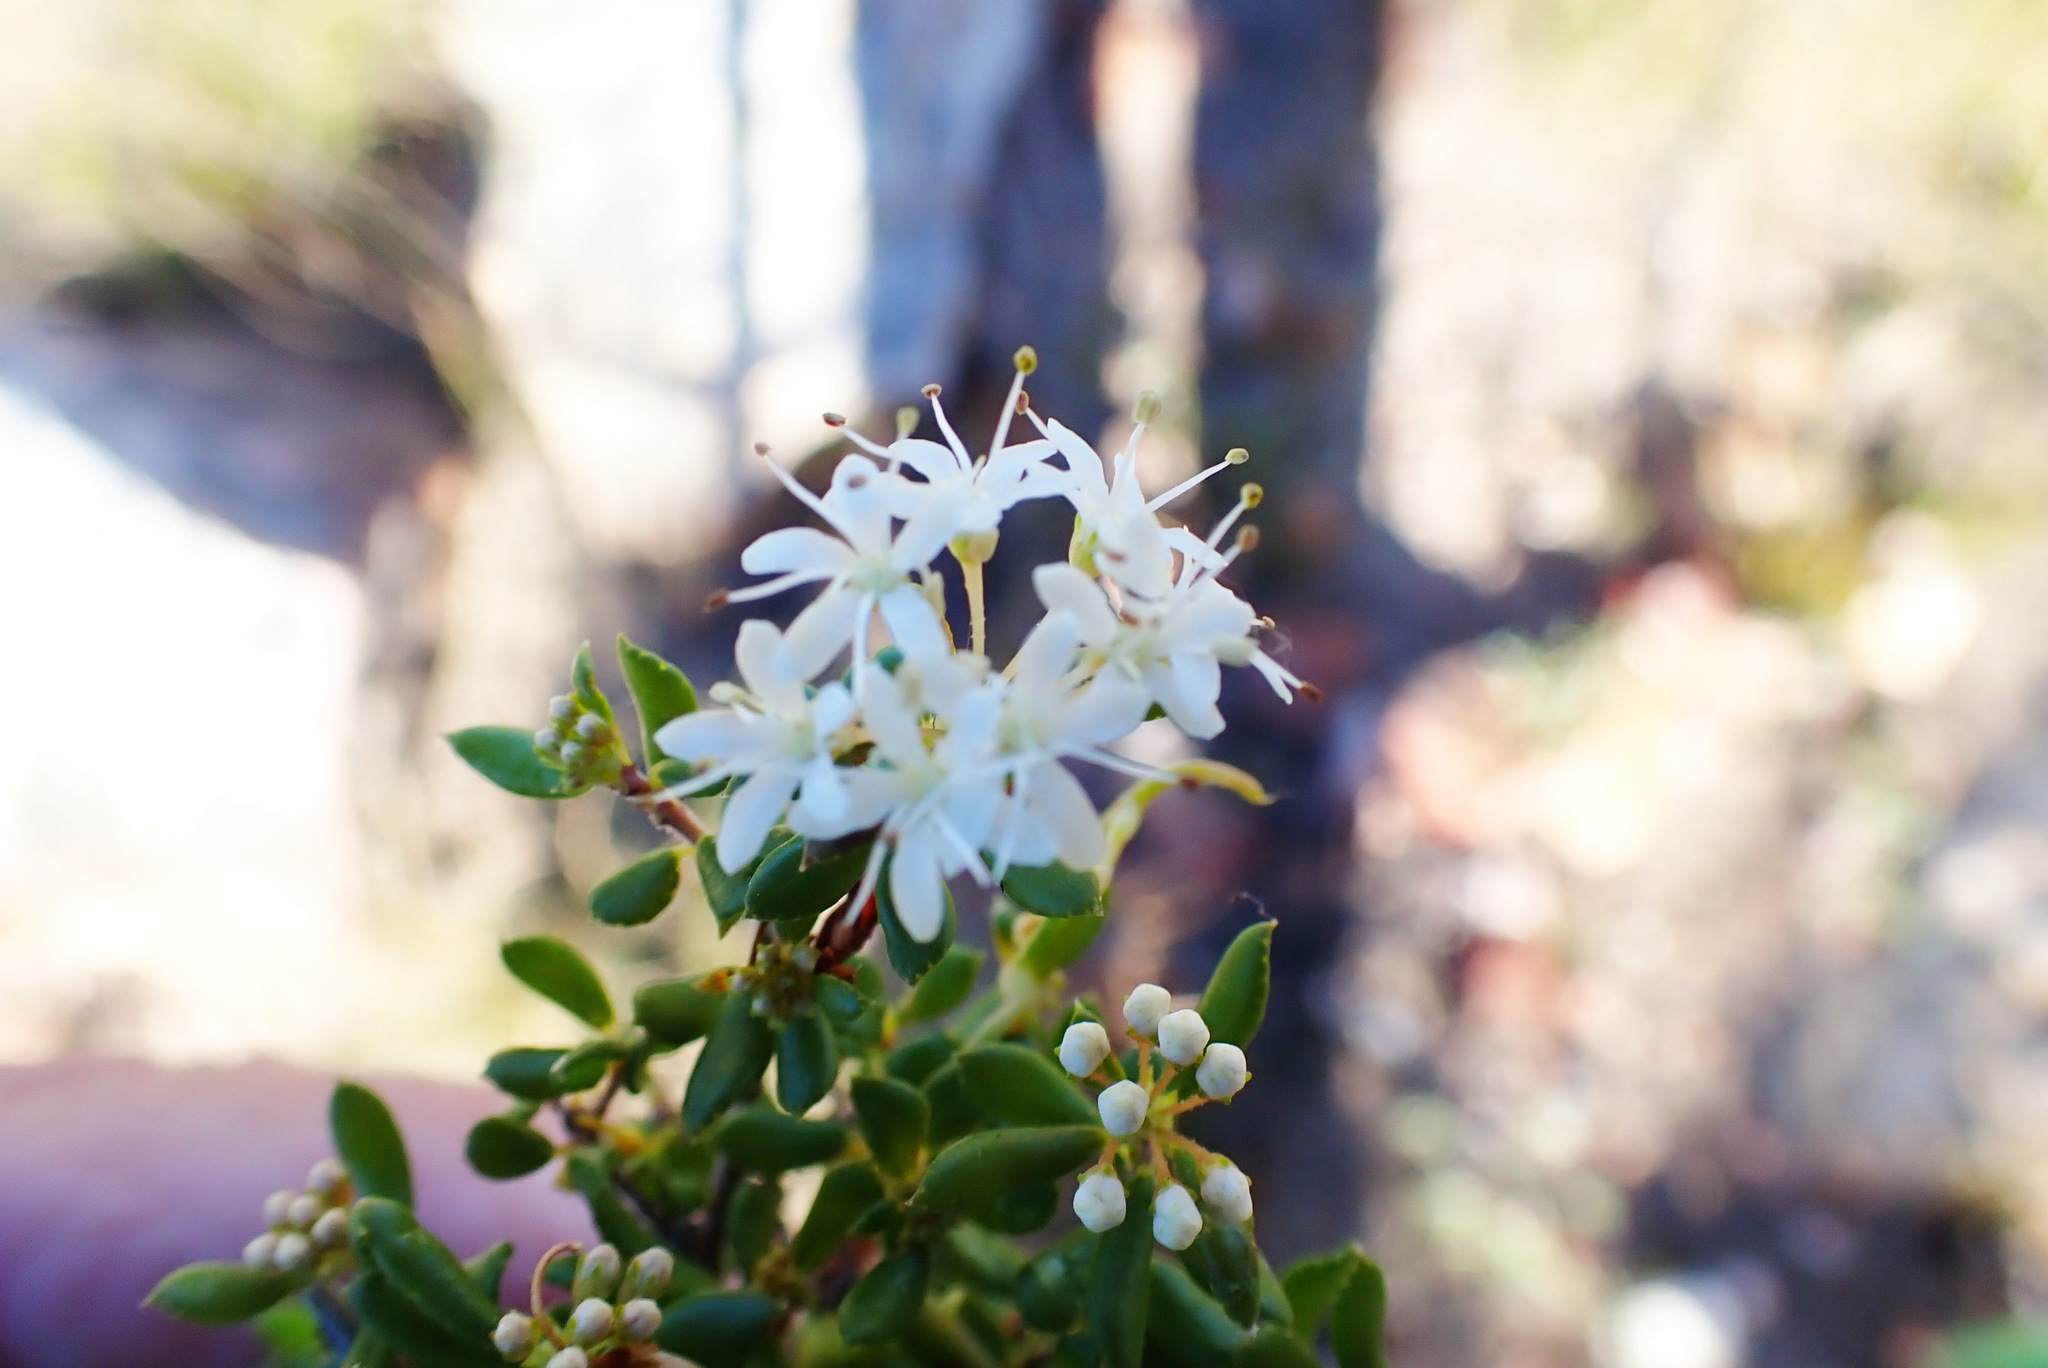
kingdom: Plantae
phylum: Tracheophyta
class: Magnoliopsida
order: Sapindales
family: Rutaceae
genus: Agathosma
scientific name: Agathosma mundtii
